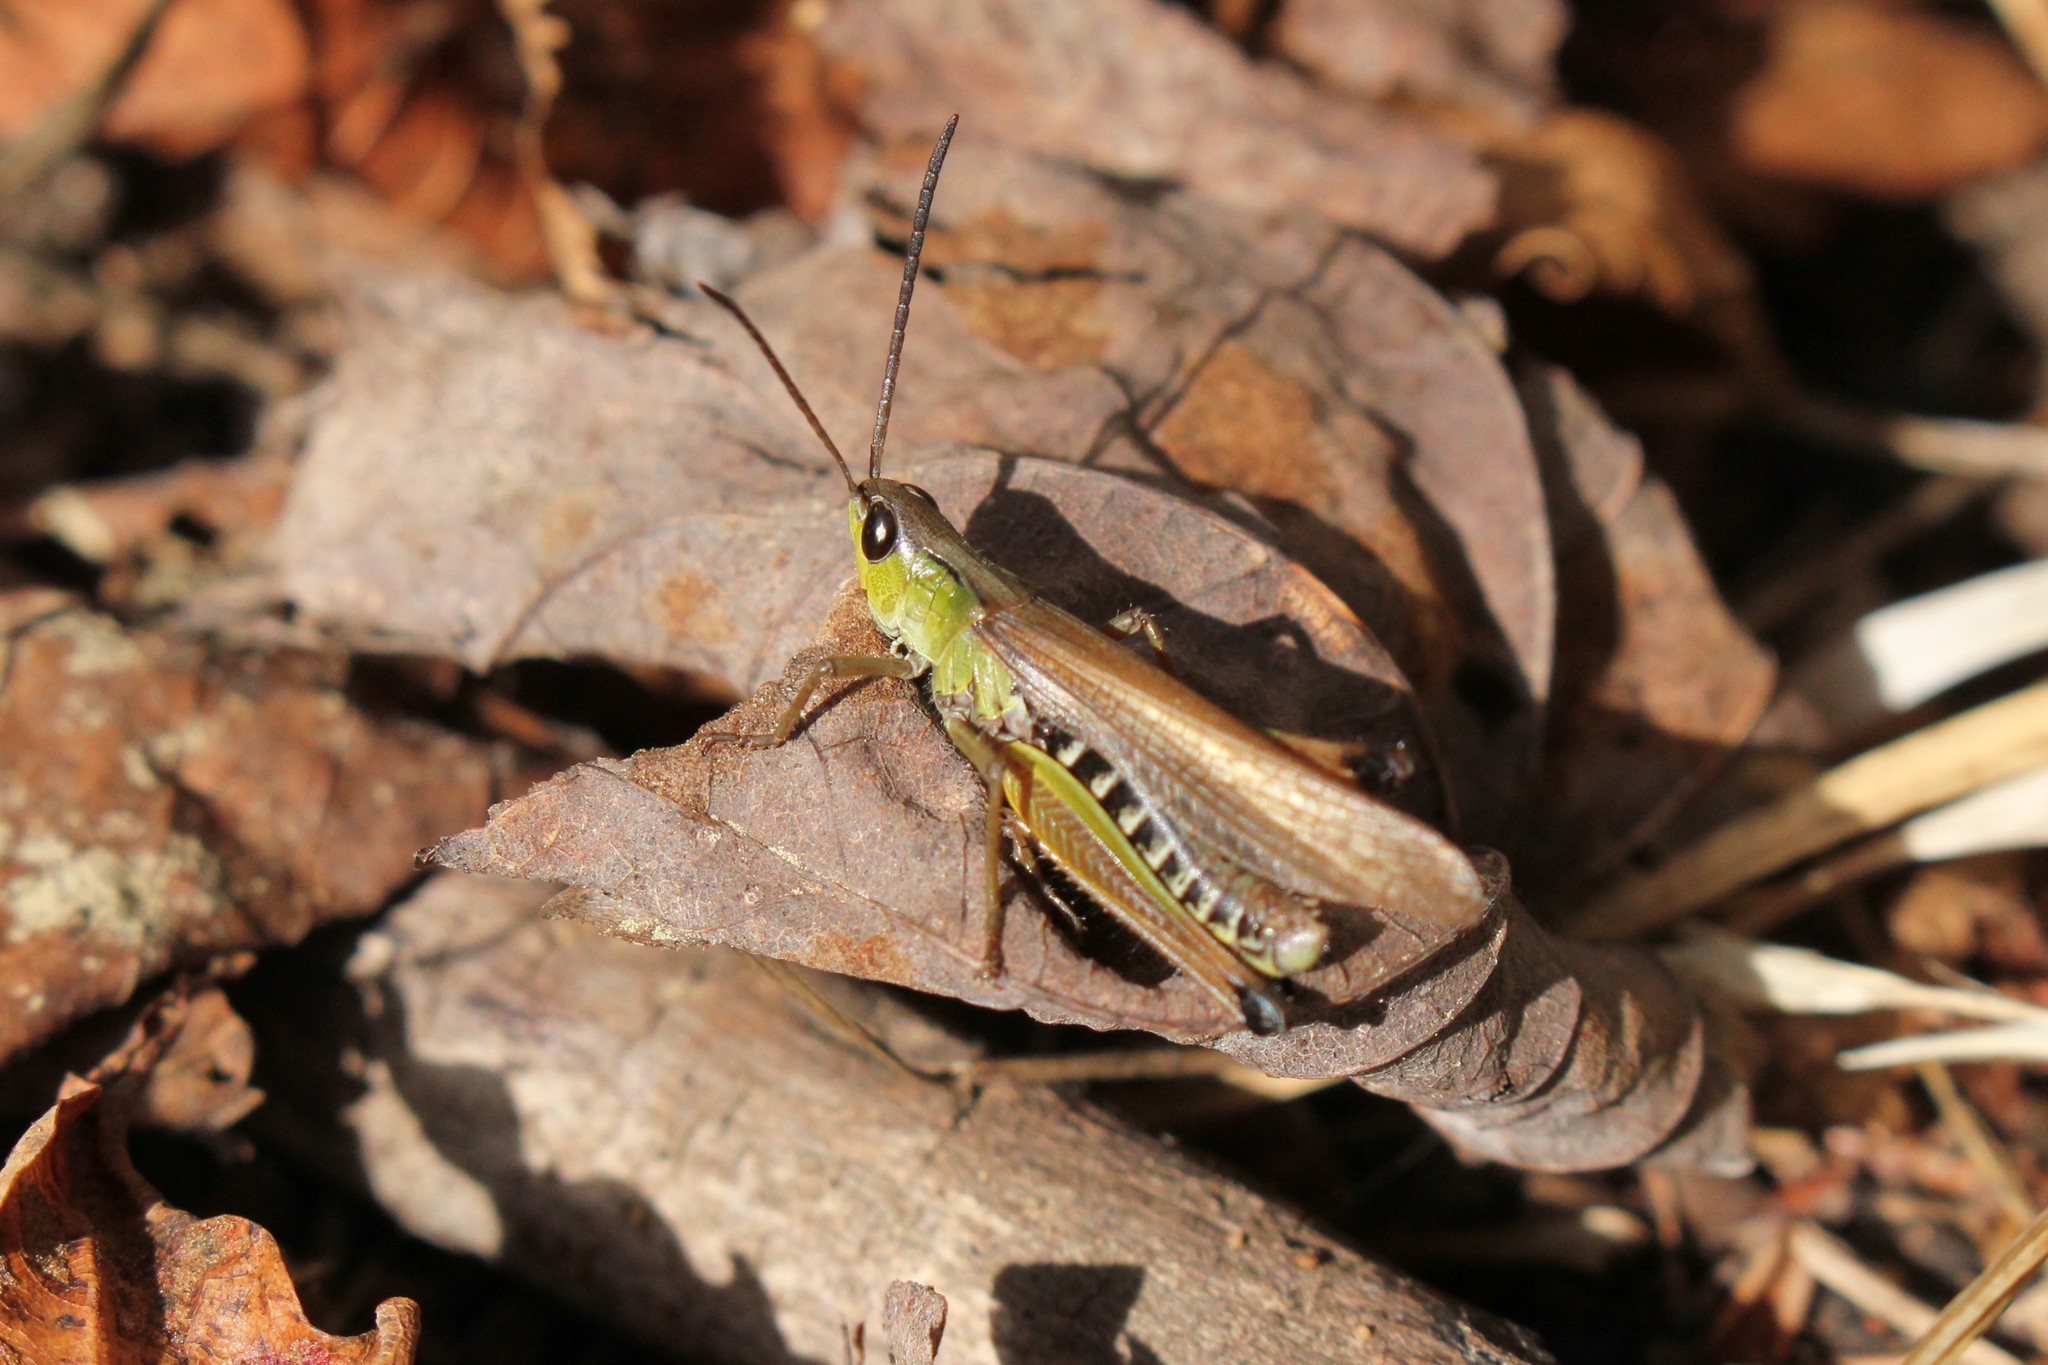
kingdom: Animalia
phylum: Arthropoda
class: Insecta
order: Orthoptera
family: Acrididae
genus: Pseudochorthippus
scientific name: Pseudochorthippus curtipennis
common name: Marsh meadow grasshopper
